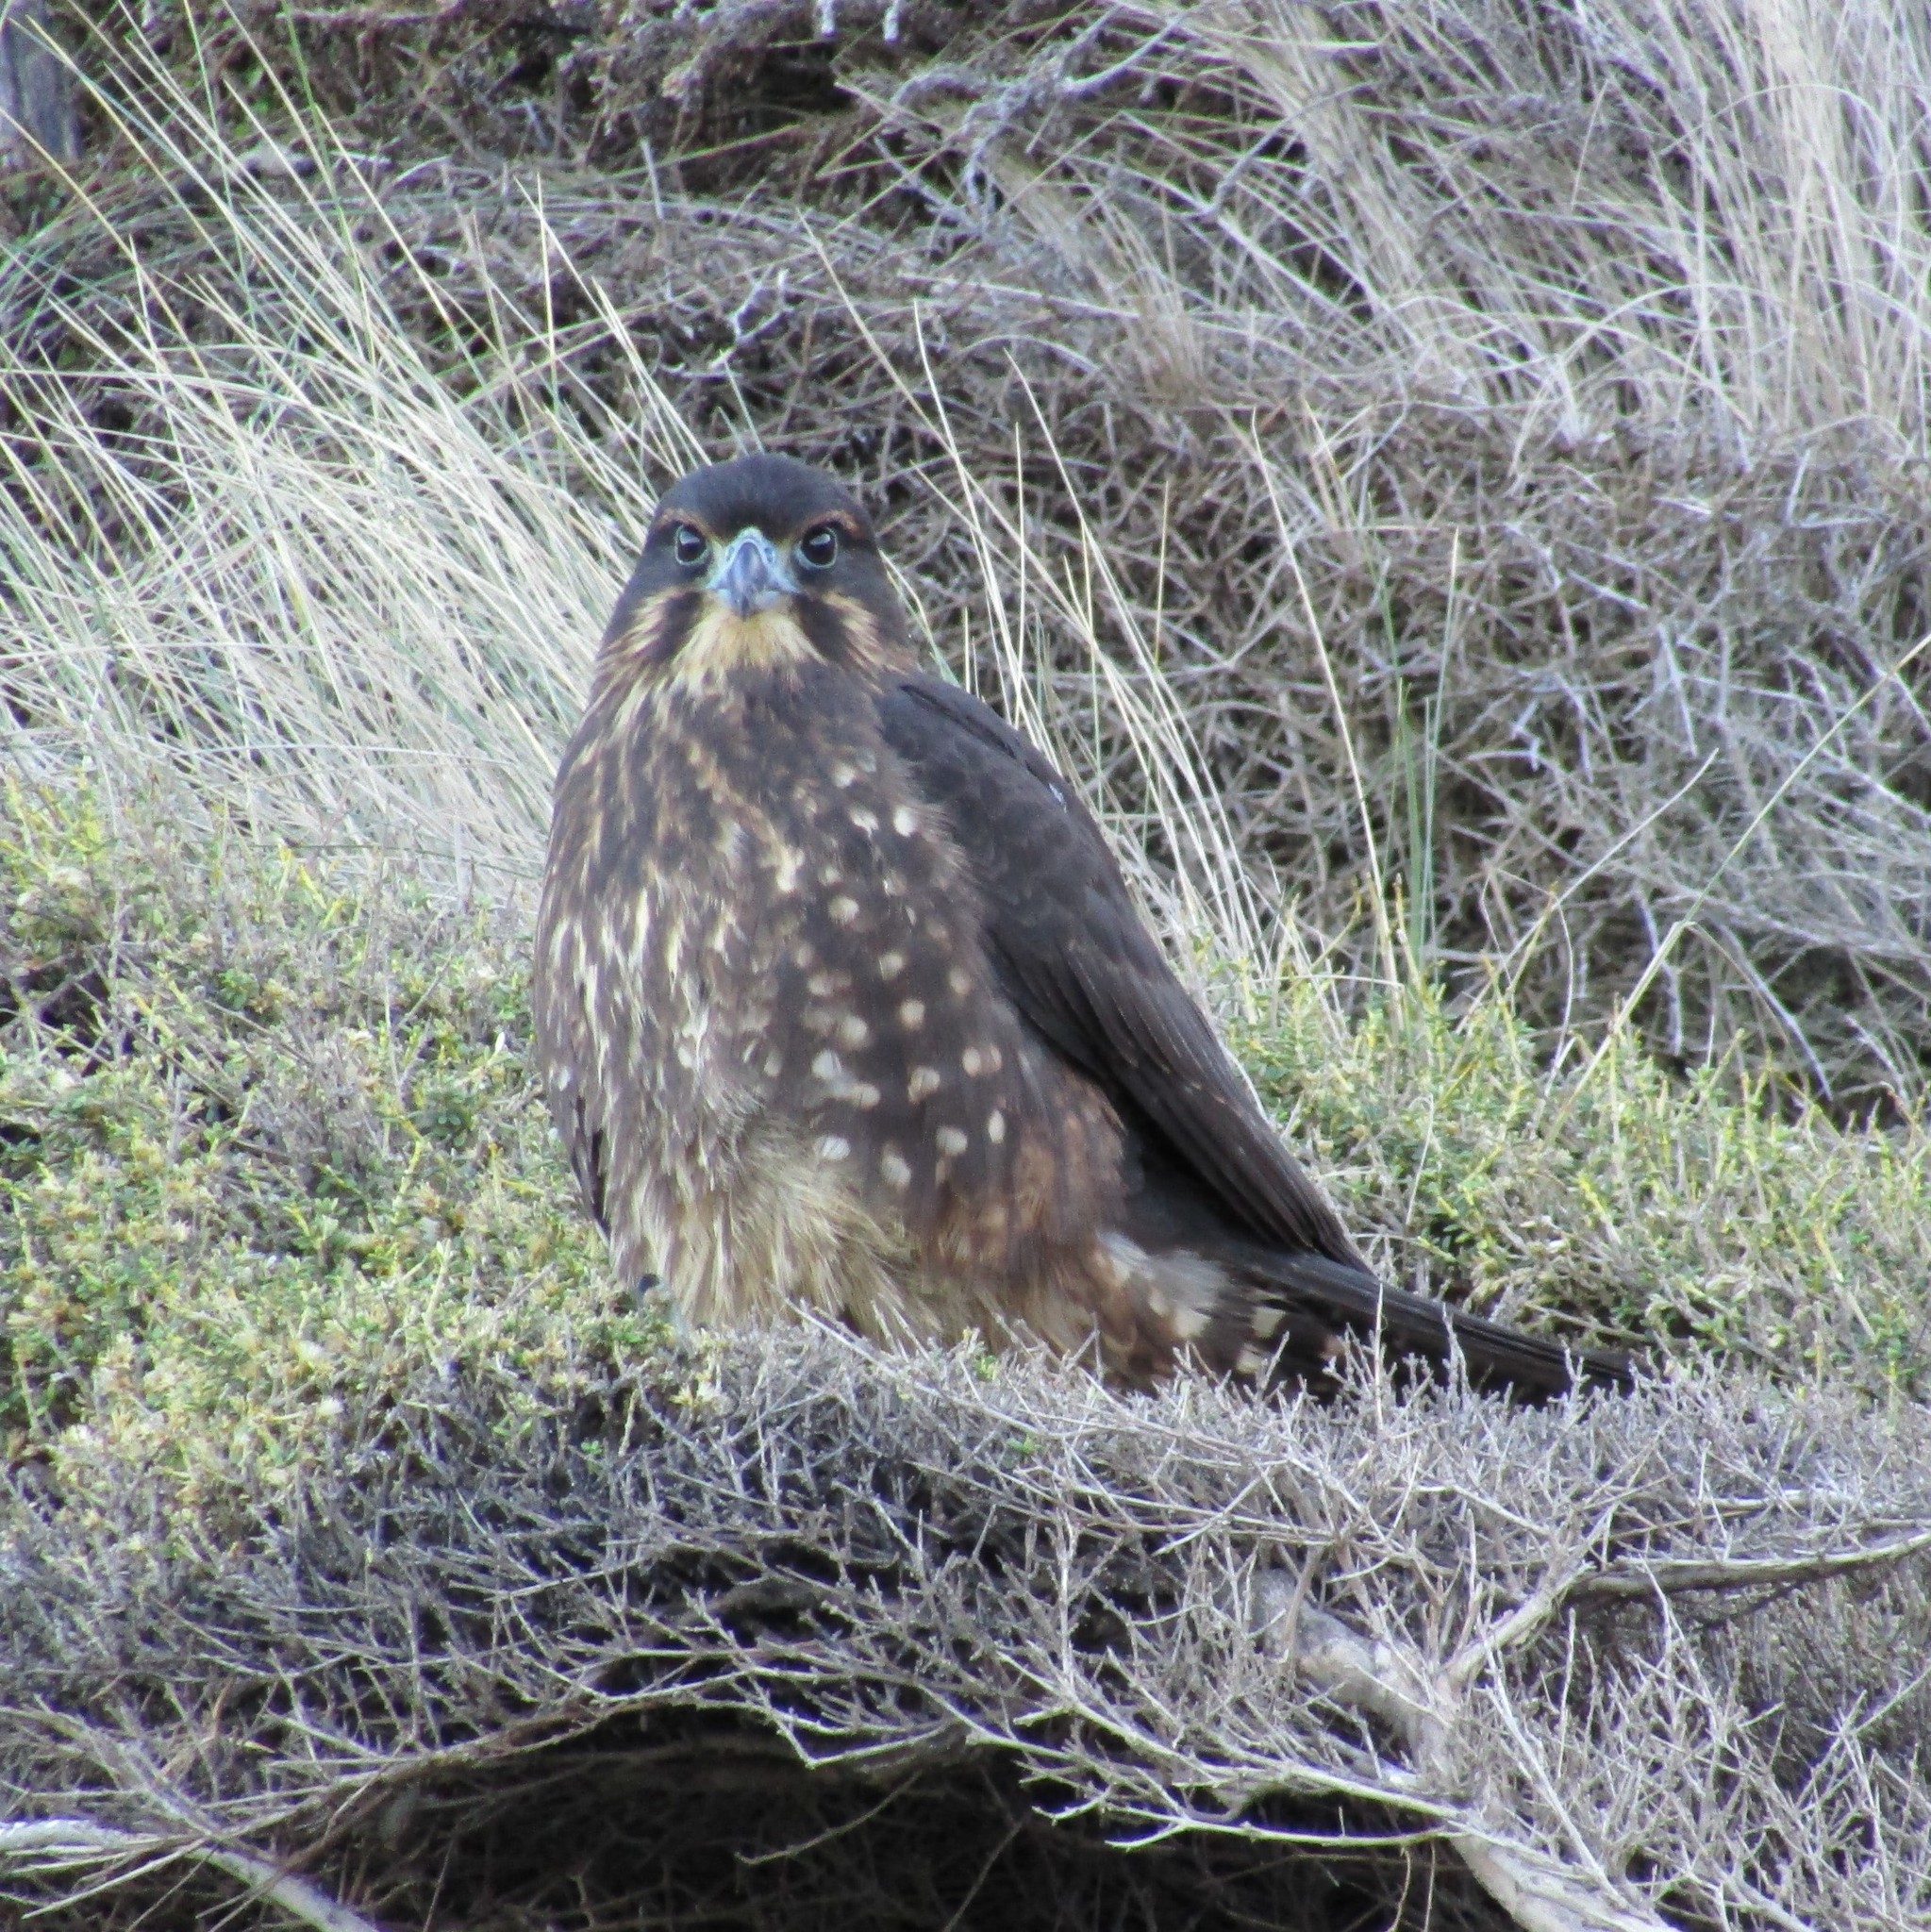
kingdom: Animalia
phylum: Chordata
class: Aves
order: Falconiformes
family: Falconidae
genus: Falco
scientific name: Falco novaeseelandiae
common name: New zealand falcon
